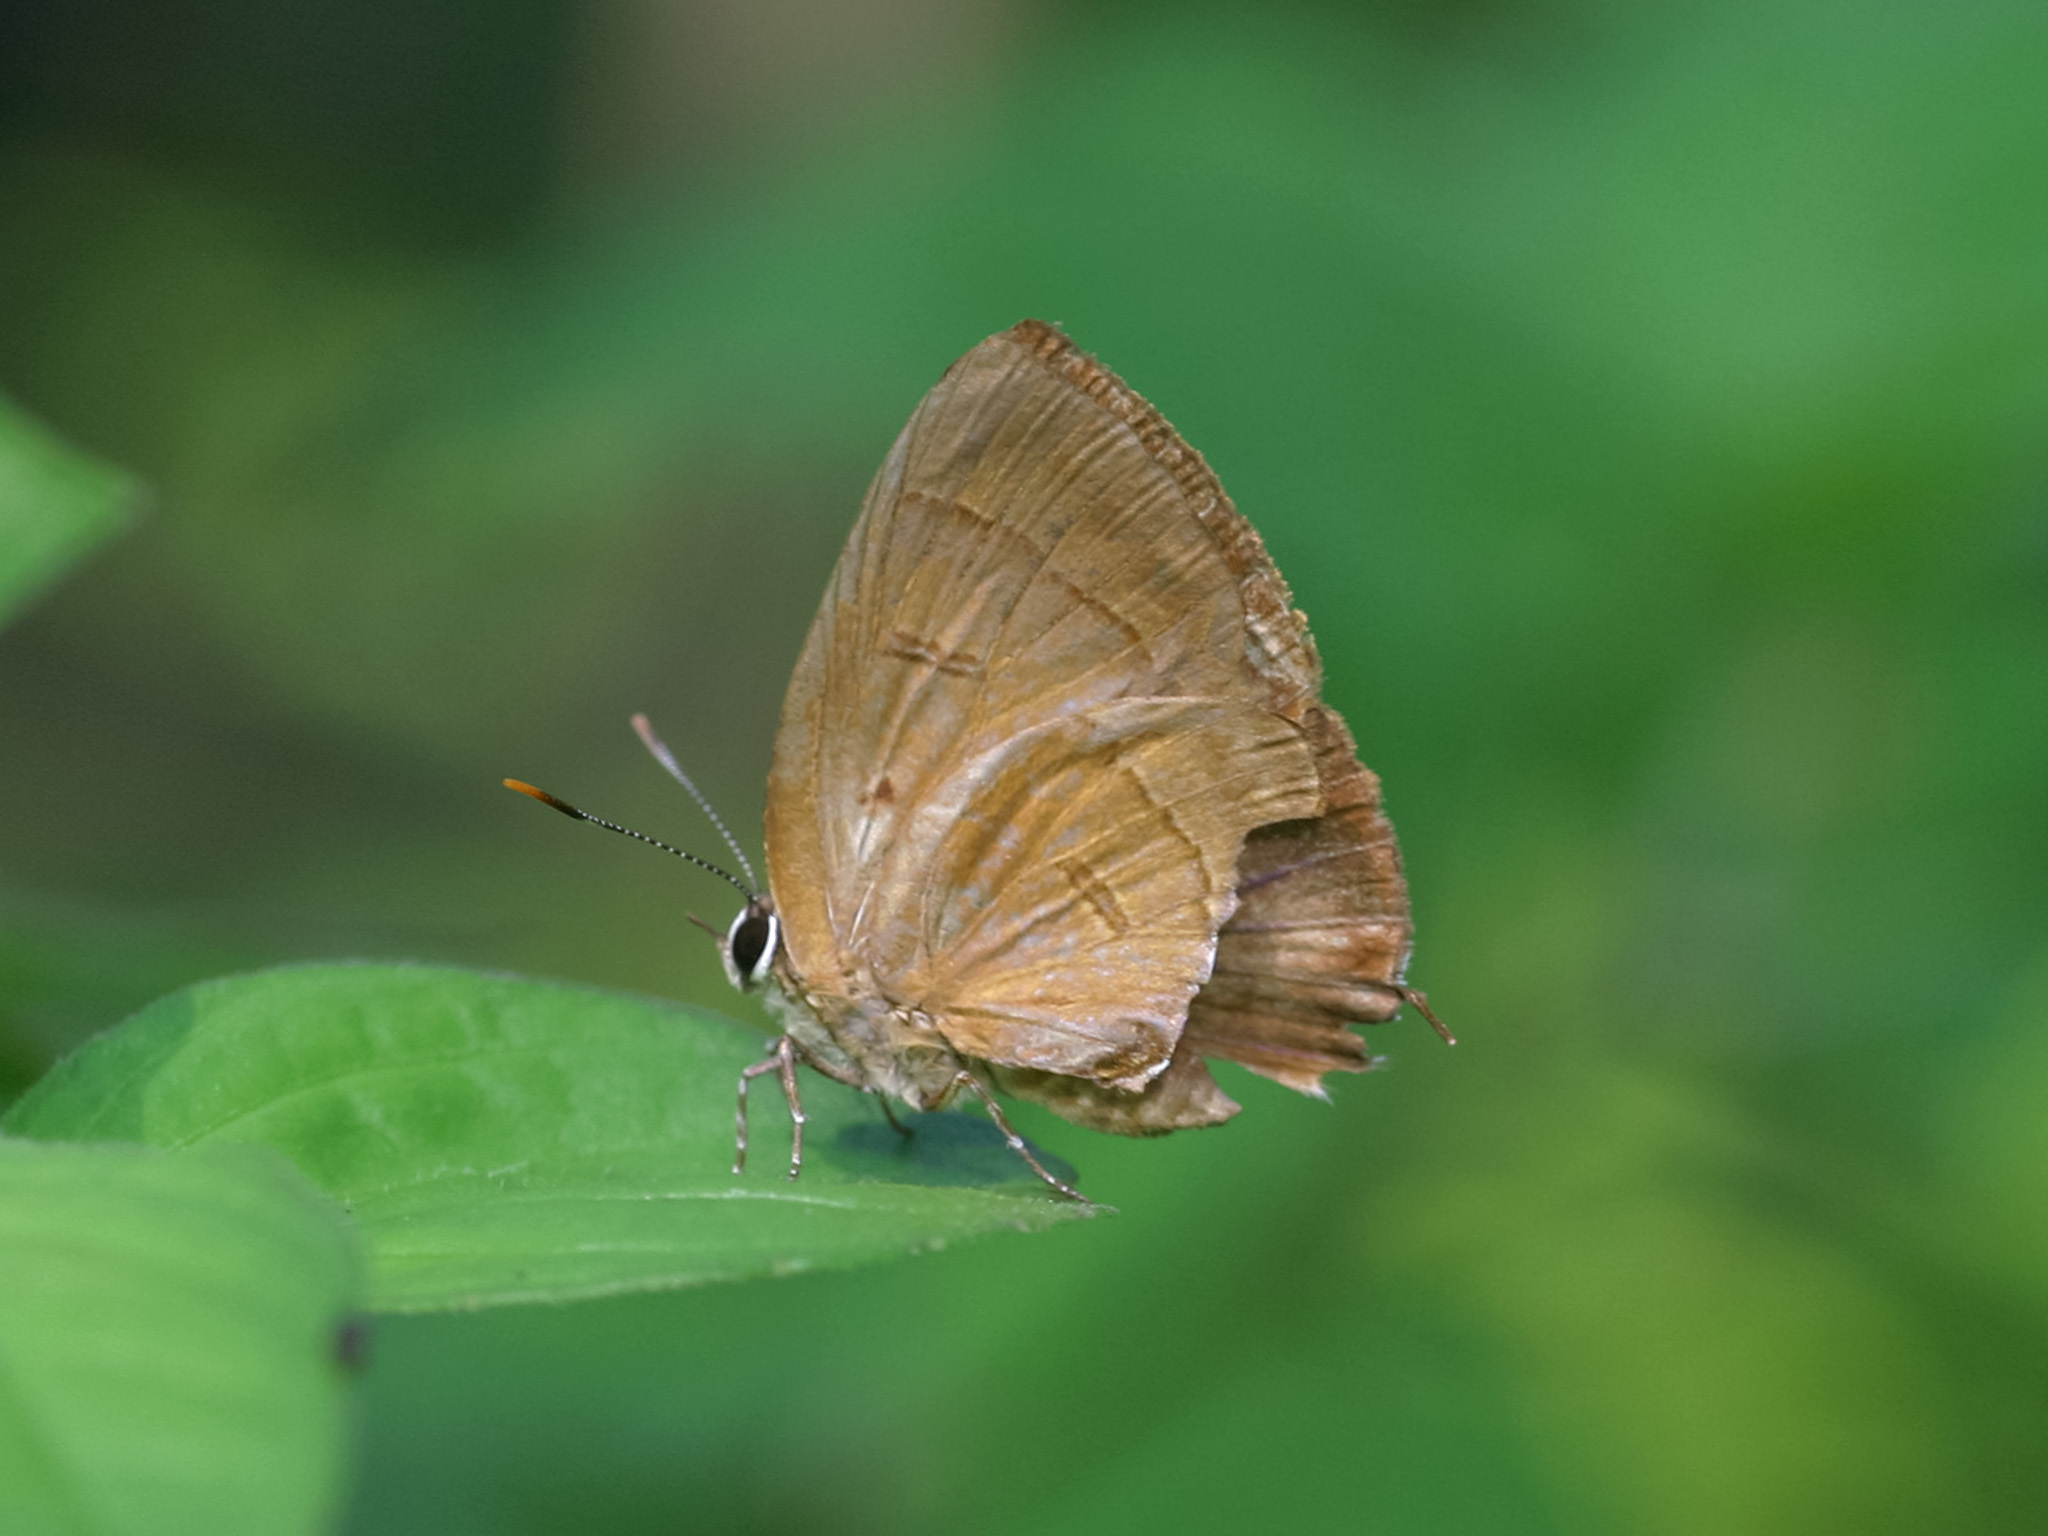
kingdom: Animalia
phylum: Arthropoda
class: Insecta
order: Lepidoptera
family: Lycaenidae
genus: Rapala
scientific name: Rapala pheretima
